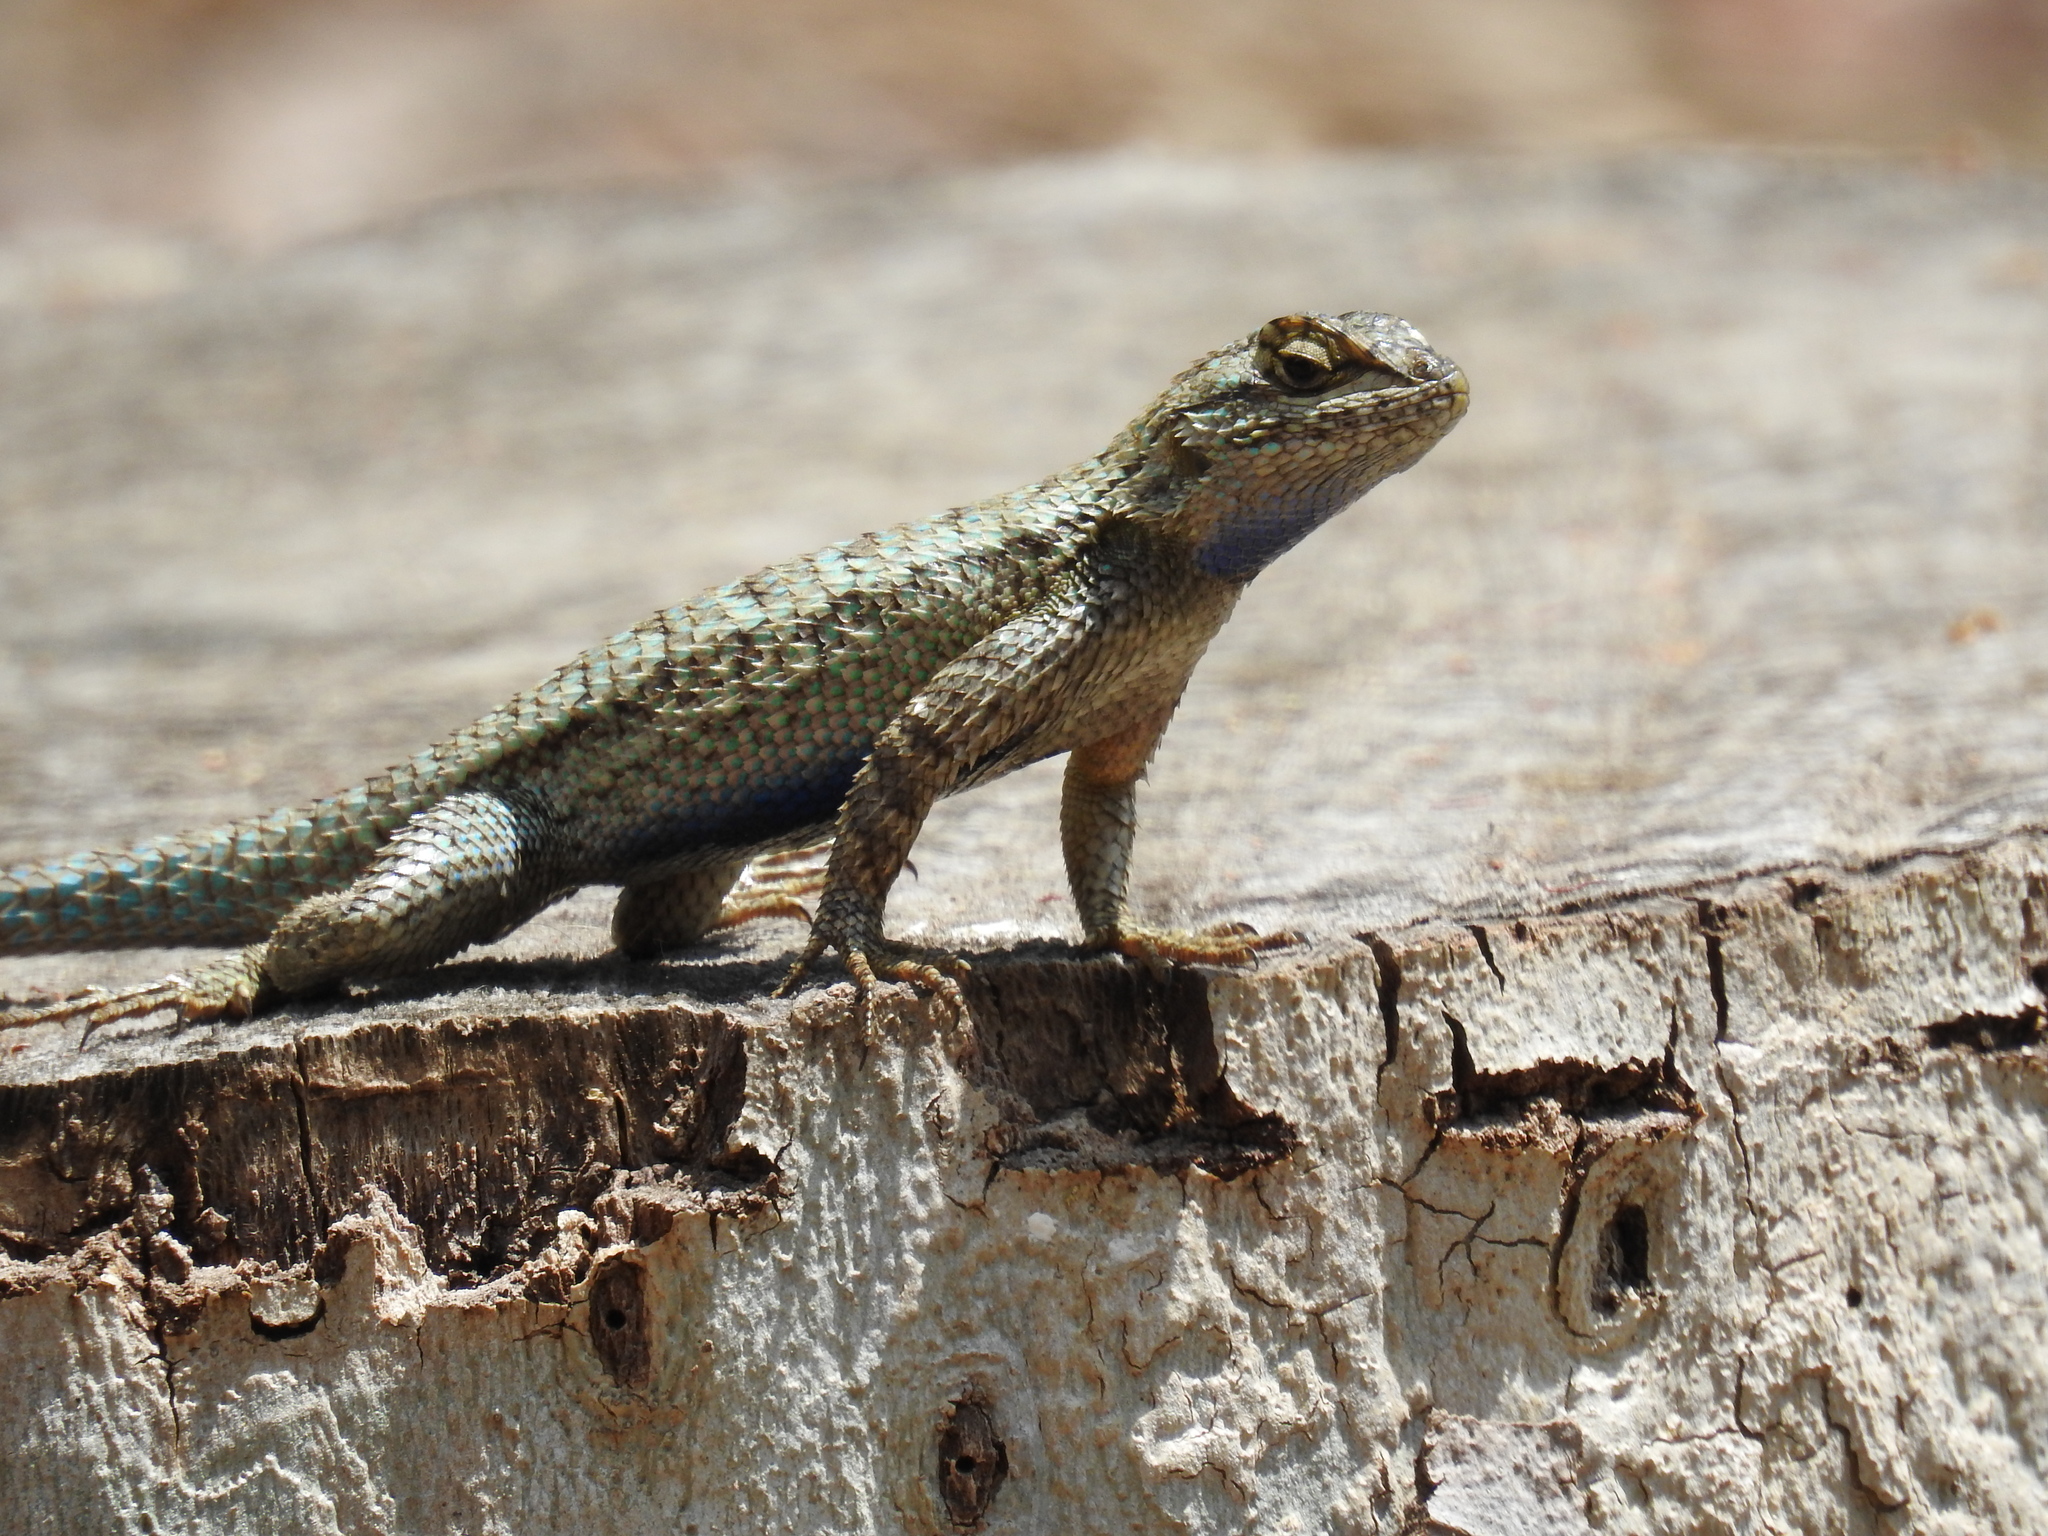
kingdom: Animalia
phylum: Chordata
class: Squamata
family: Phrynosomatidae
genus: Sceloporus
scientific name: Sceloporus occidentalis
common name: Western fence lizard
